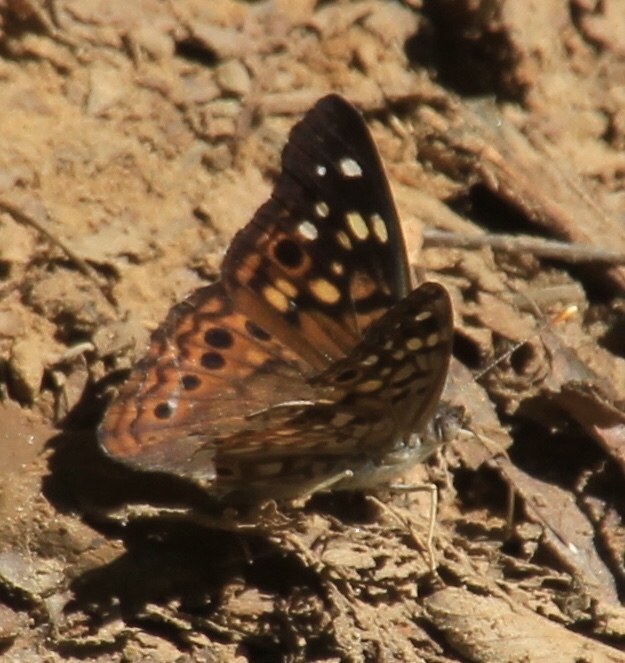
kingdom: Animalia
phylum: Arthropoda
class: Insecta
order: Lepidoptera
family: Nymphalidae
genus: Asterocampa
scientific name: Asterocampa celtis
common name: Hackberry emperor
